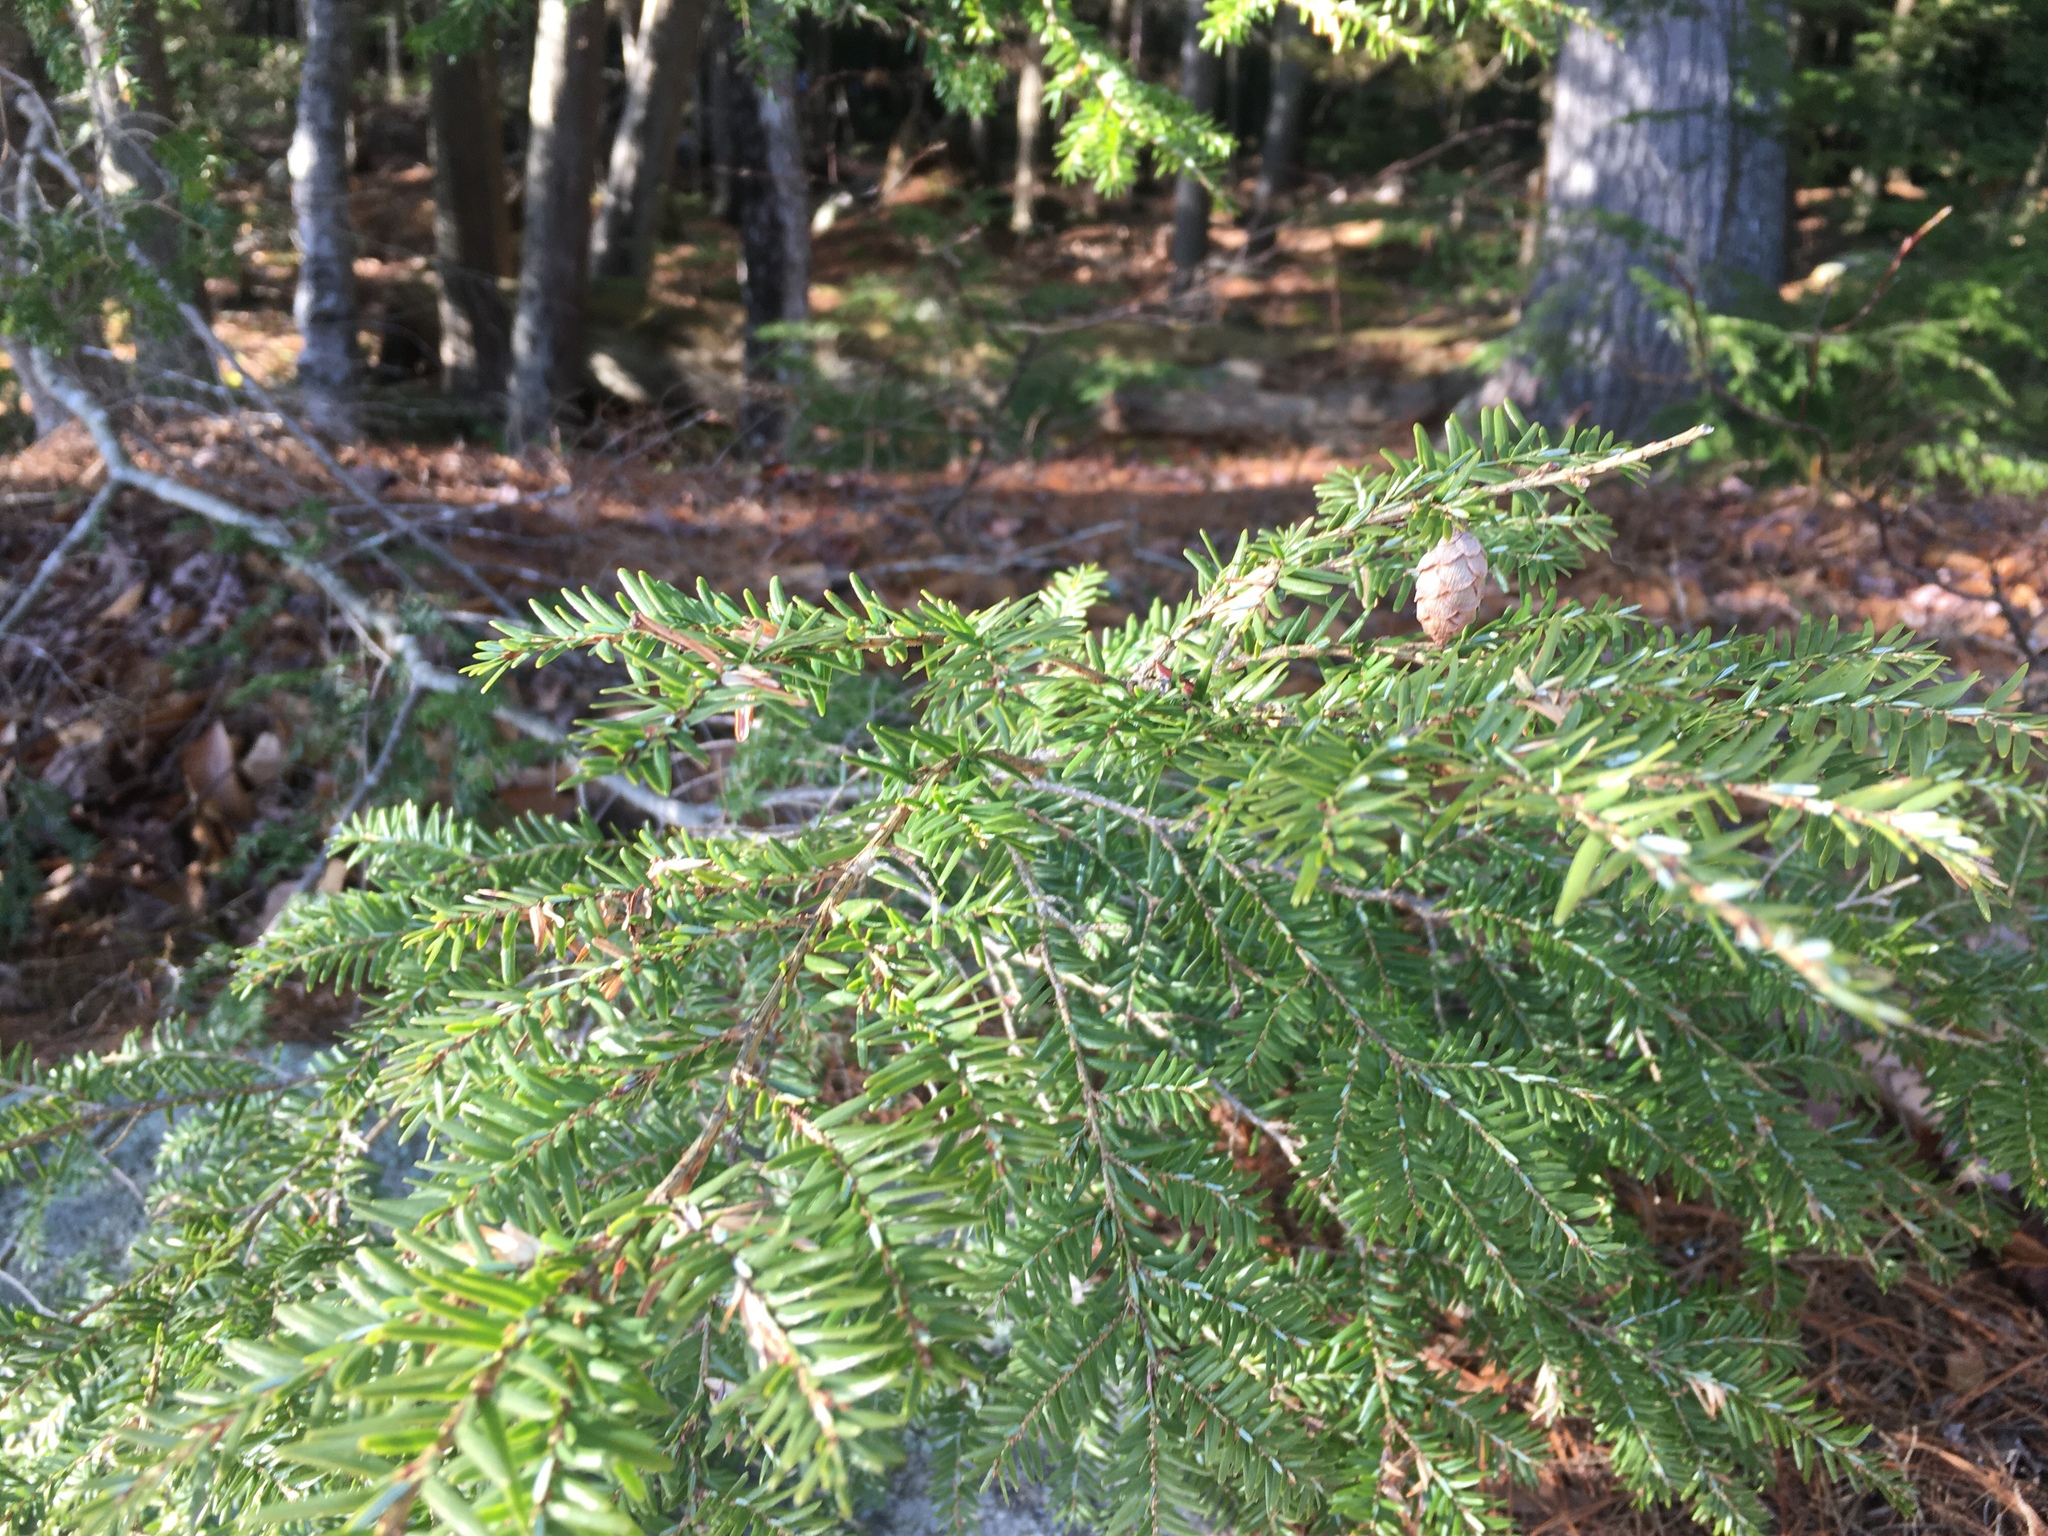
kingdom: Plantae
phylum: Tracheophyta
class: Pinopsida
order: Pinales
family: Pinaceae
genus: Tsuga
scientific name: Tsuga canadensis
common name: Eastern hemlock
